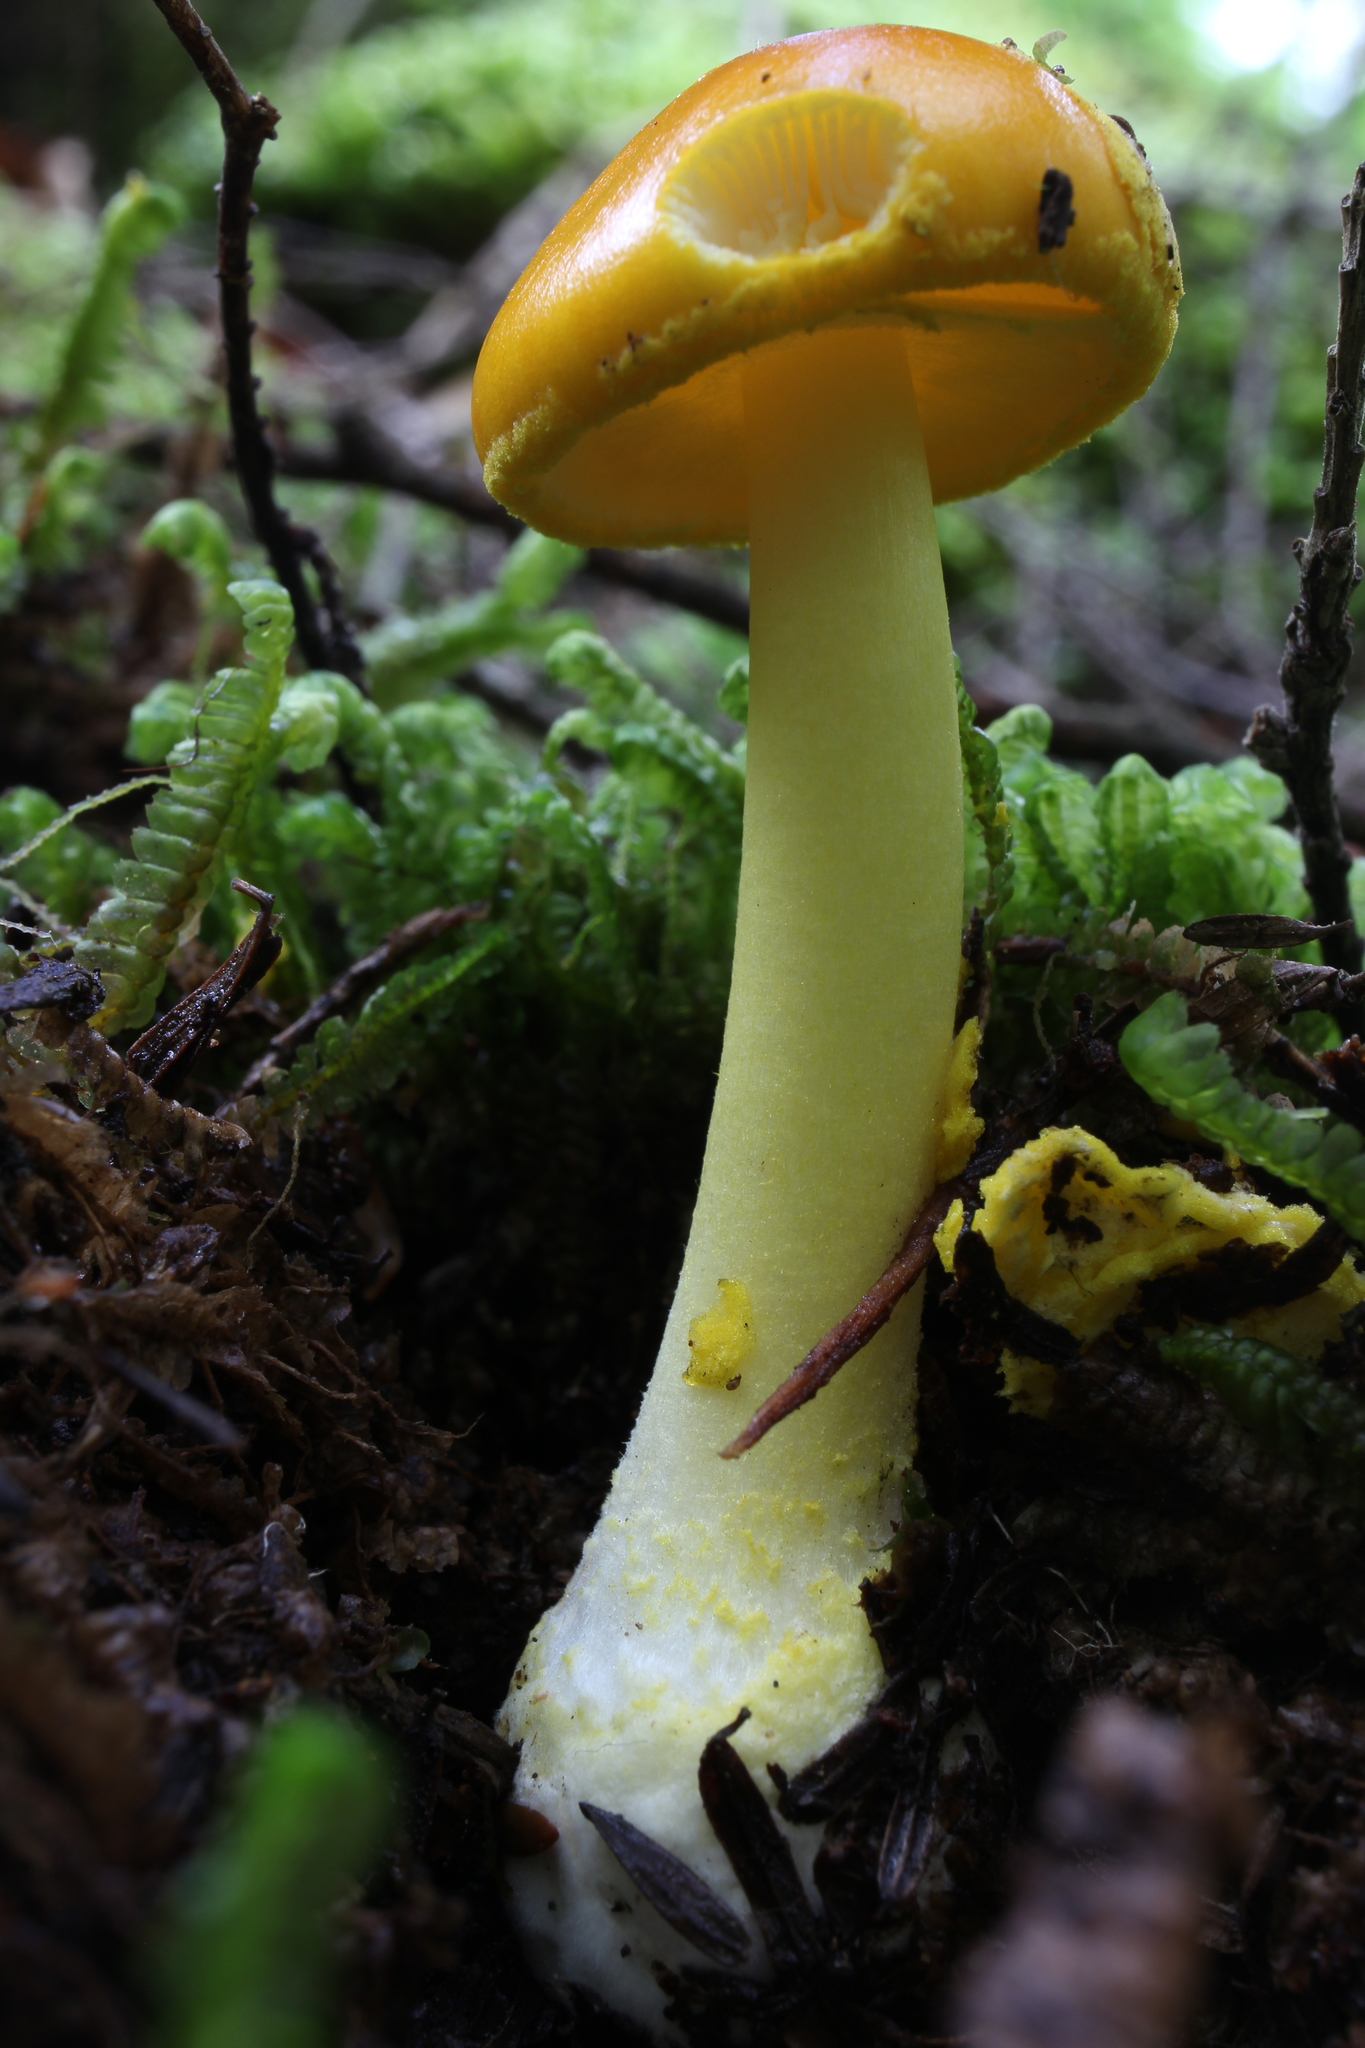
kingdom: Fungi
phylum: Basidiomycota
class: Agaricomycetes
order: Agaricales
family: Amanitaceae
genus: Amanita
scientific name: Amanita flavoconia
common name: Yellow patches
